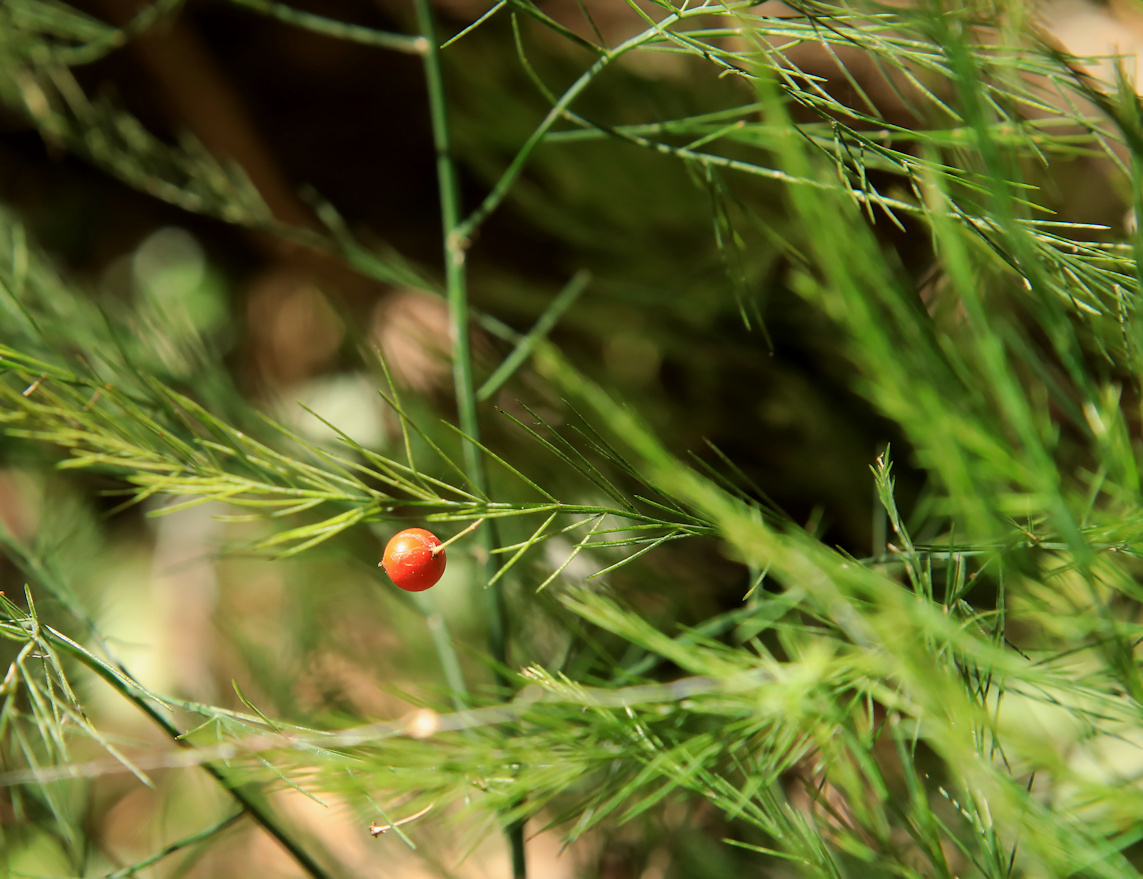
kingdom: Plantae
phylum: Tracheophyta
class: Liliopsida
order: Asparagales
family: Asparagaceae
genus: Asparagus
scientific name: Asparagus virgatus
